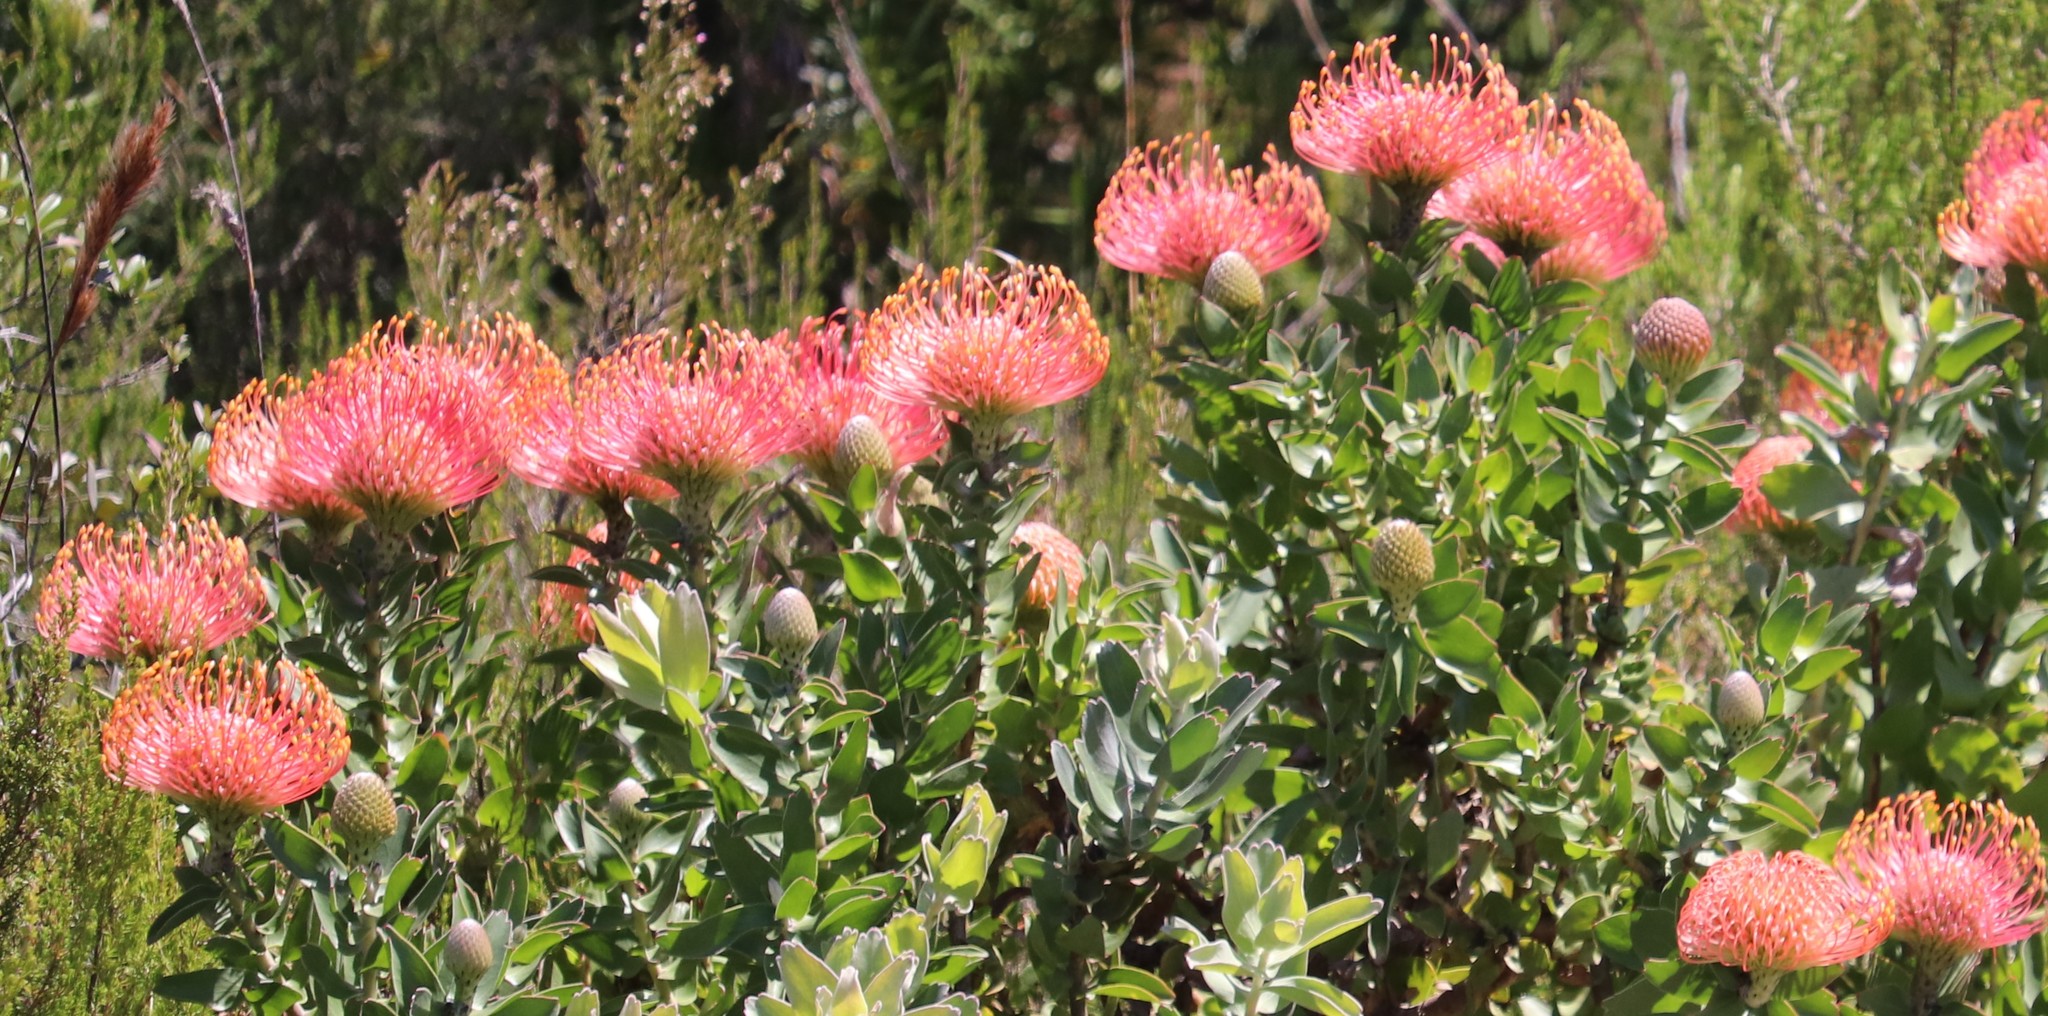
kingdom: Plantae
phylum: Tracheophyta
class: Magnoliopsida
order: Proteales
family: Proteaceae
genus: Leucospermum
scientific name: Leucospermum
